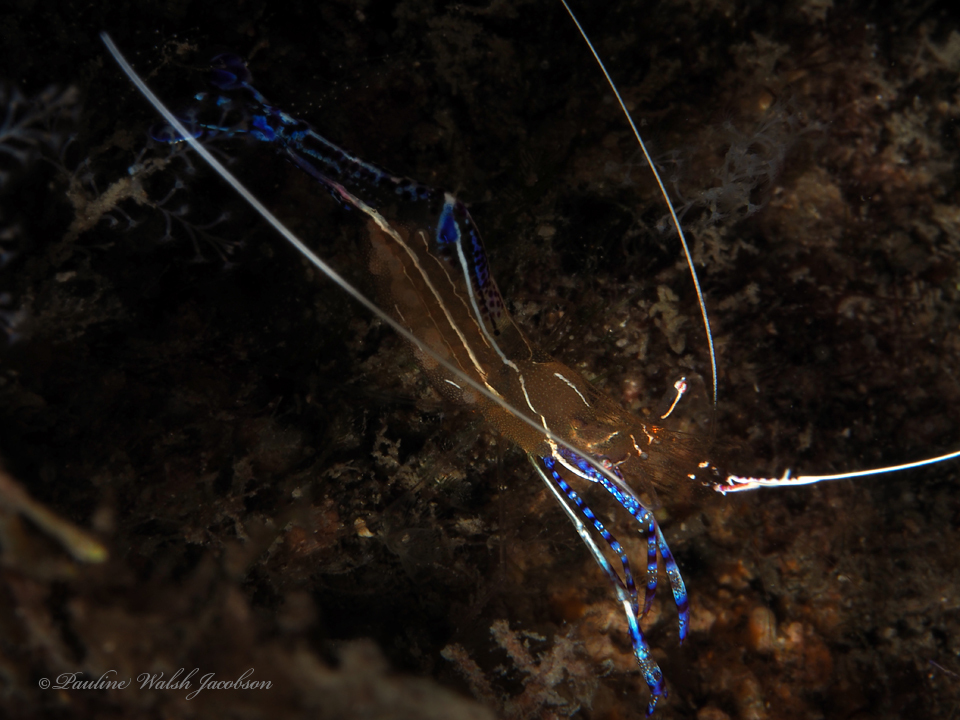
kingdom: Animalia
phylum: Arthropoda
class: Malacostraca
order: Decapoda
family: Palaemonidae
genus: Ancylomenes
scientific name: Ancylomenes pedersoni
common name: Pederson's cleaning shrimp
